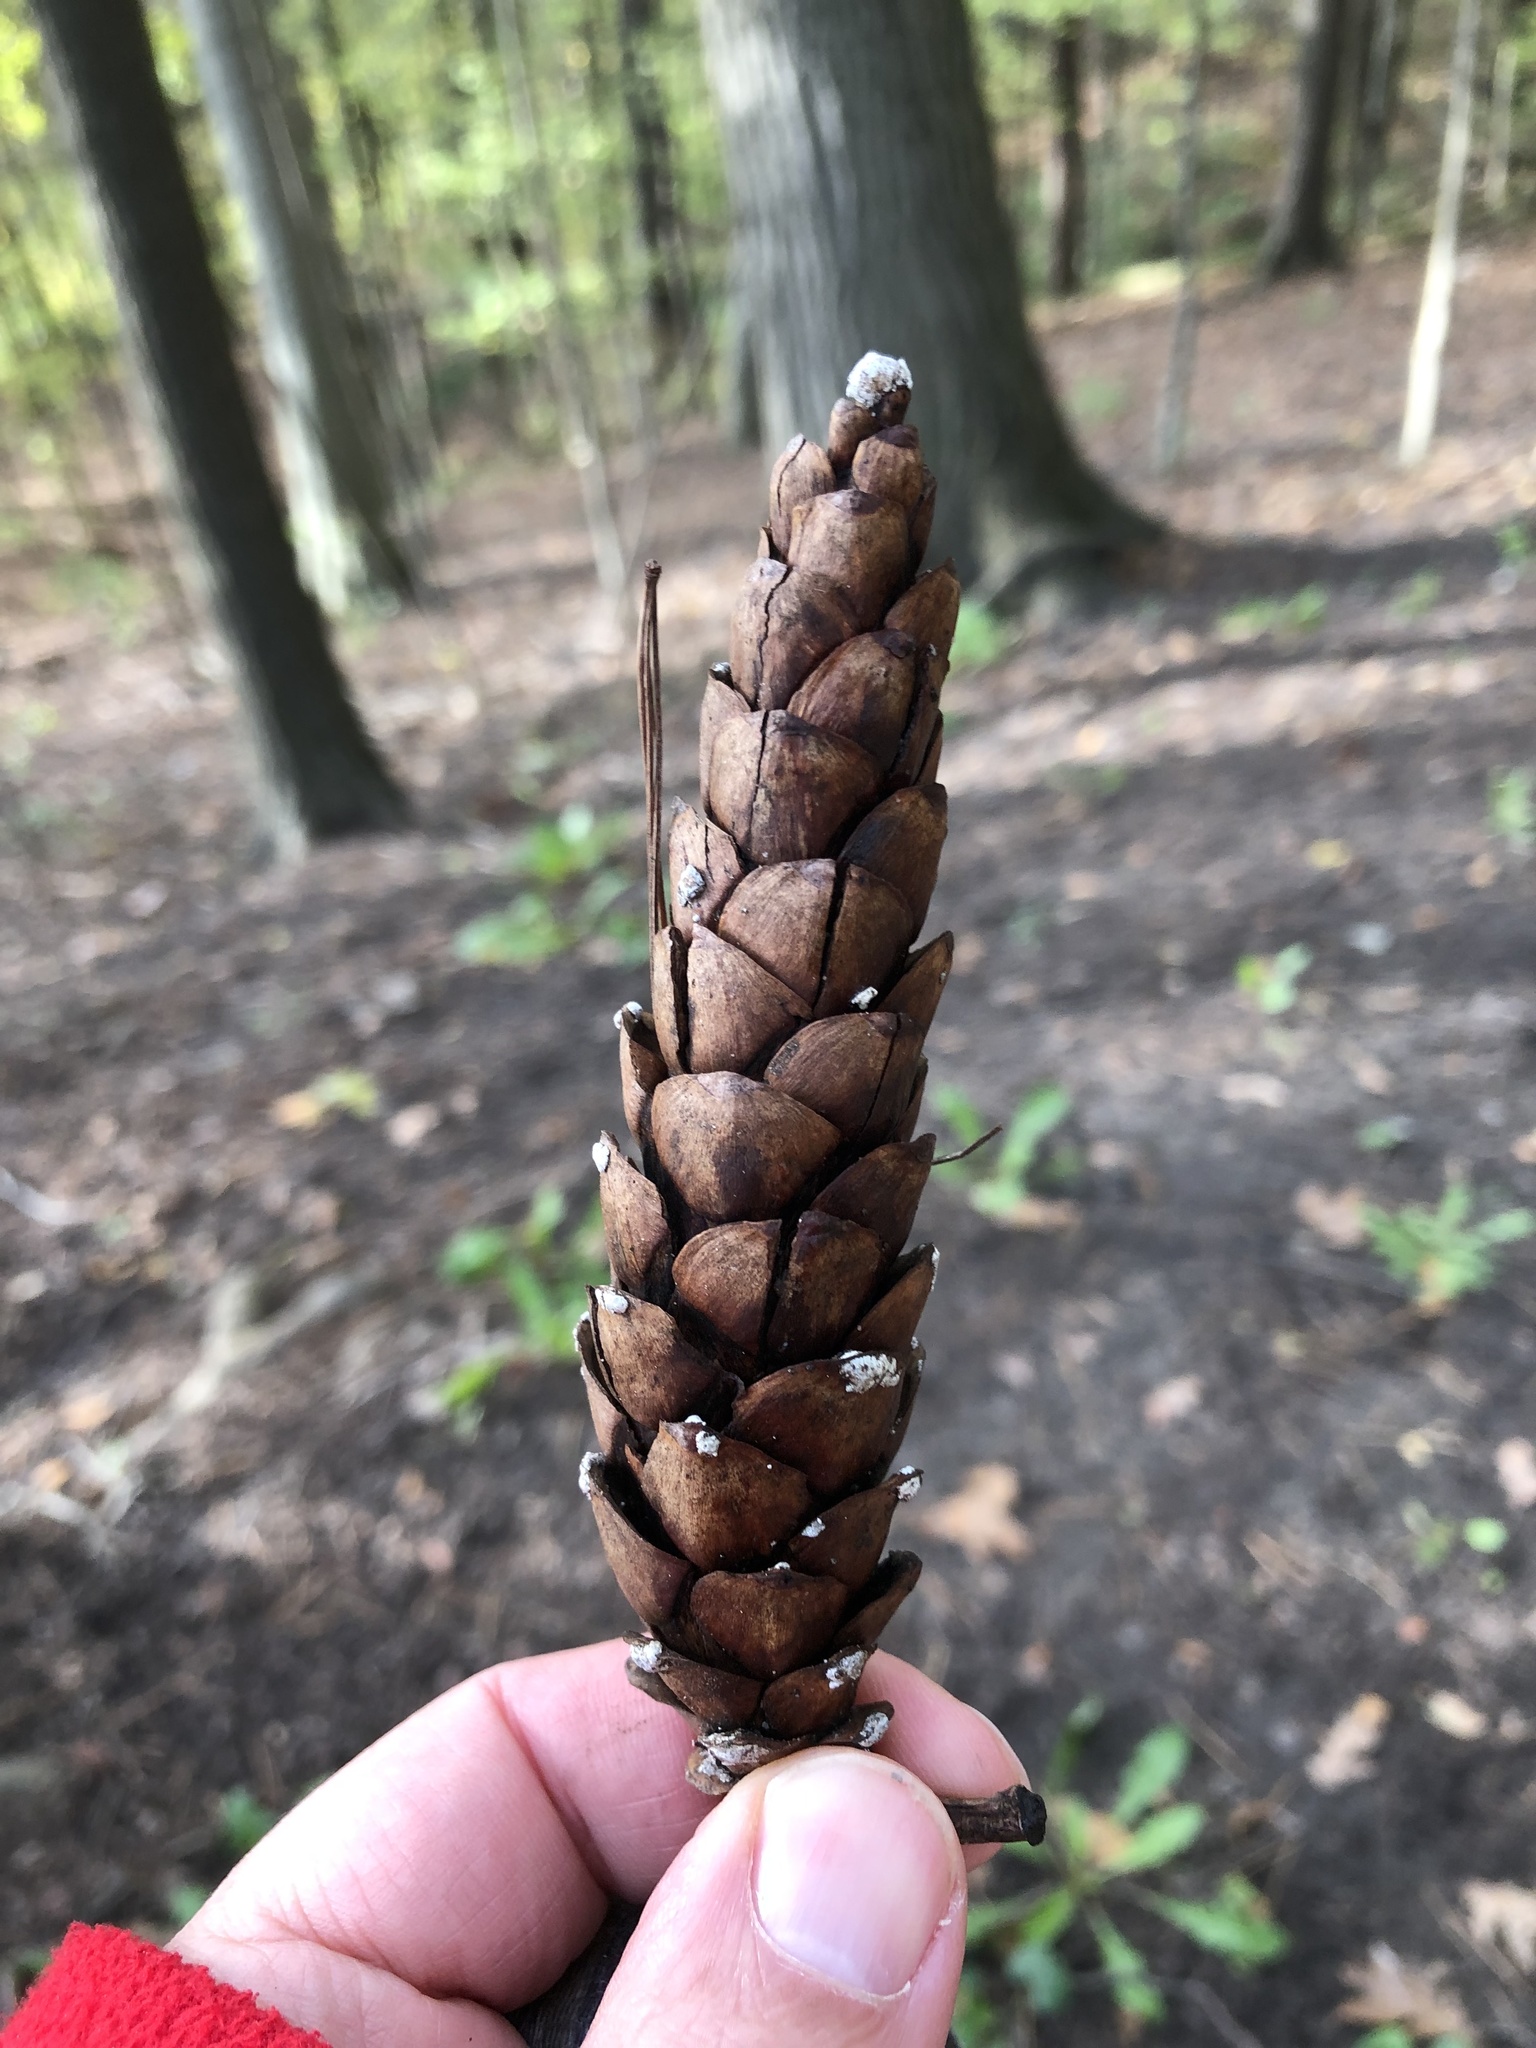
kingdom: Plantae
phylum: Tracheophyta
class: Pinopsida
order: Pinales
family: Pinaceae
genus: Pinus
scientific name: Pinus strobus
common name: Weymouth pine
